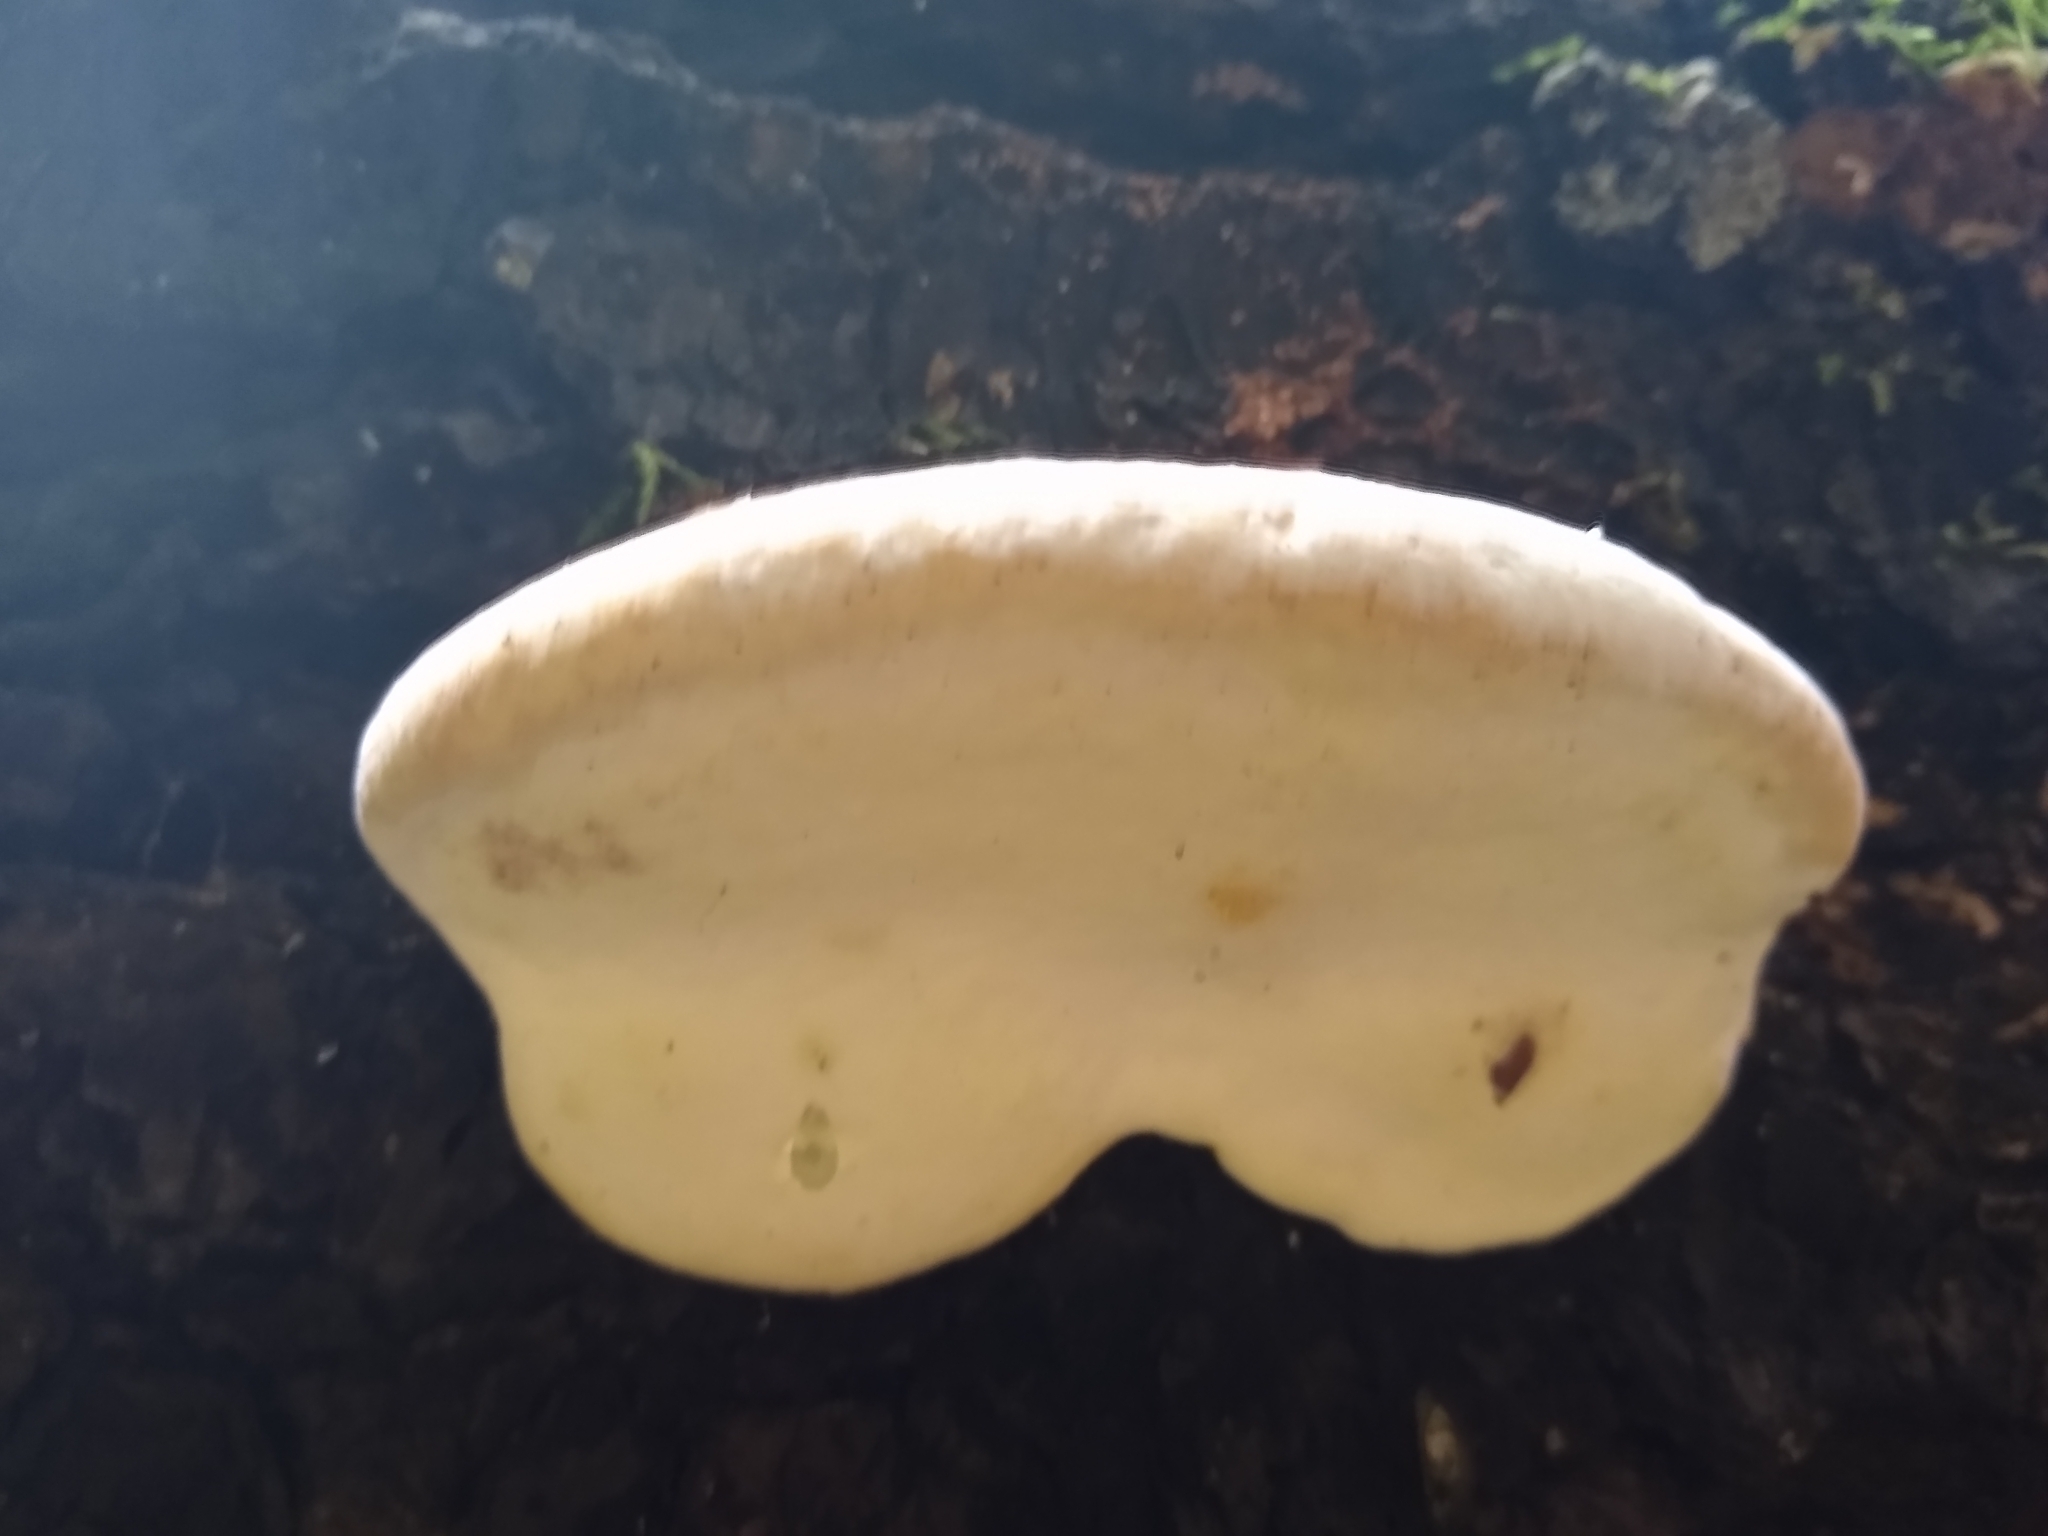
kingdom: Fungi
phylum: Basidiomycota
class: Agaricomycetes
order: Polyporales
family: Fomitopsidaceae
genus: Fomitopsis
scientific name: Fomitopsis mounceae
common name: Northern red belt
